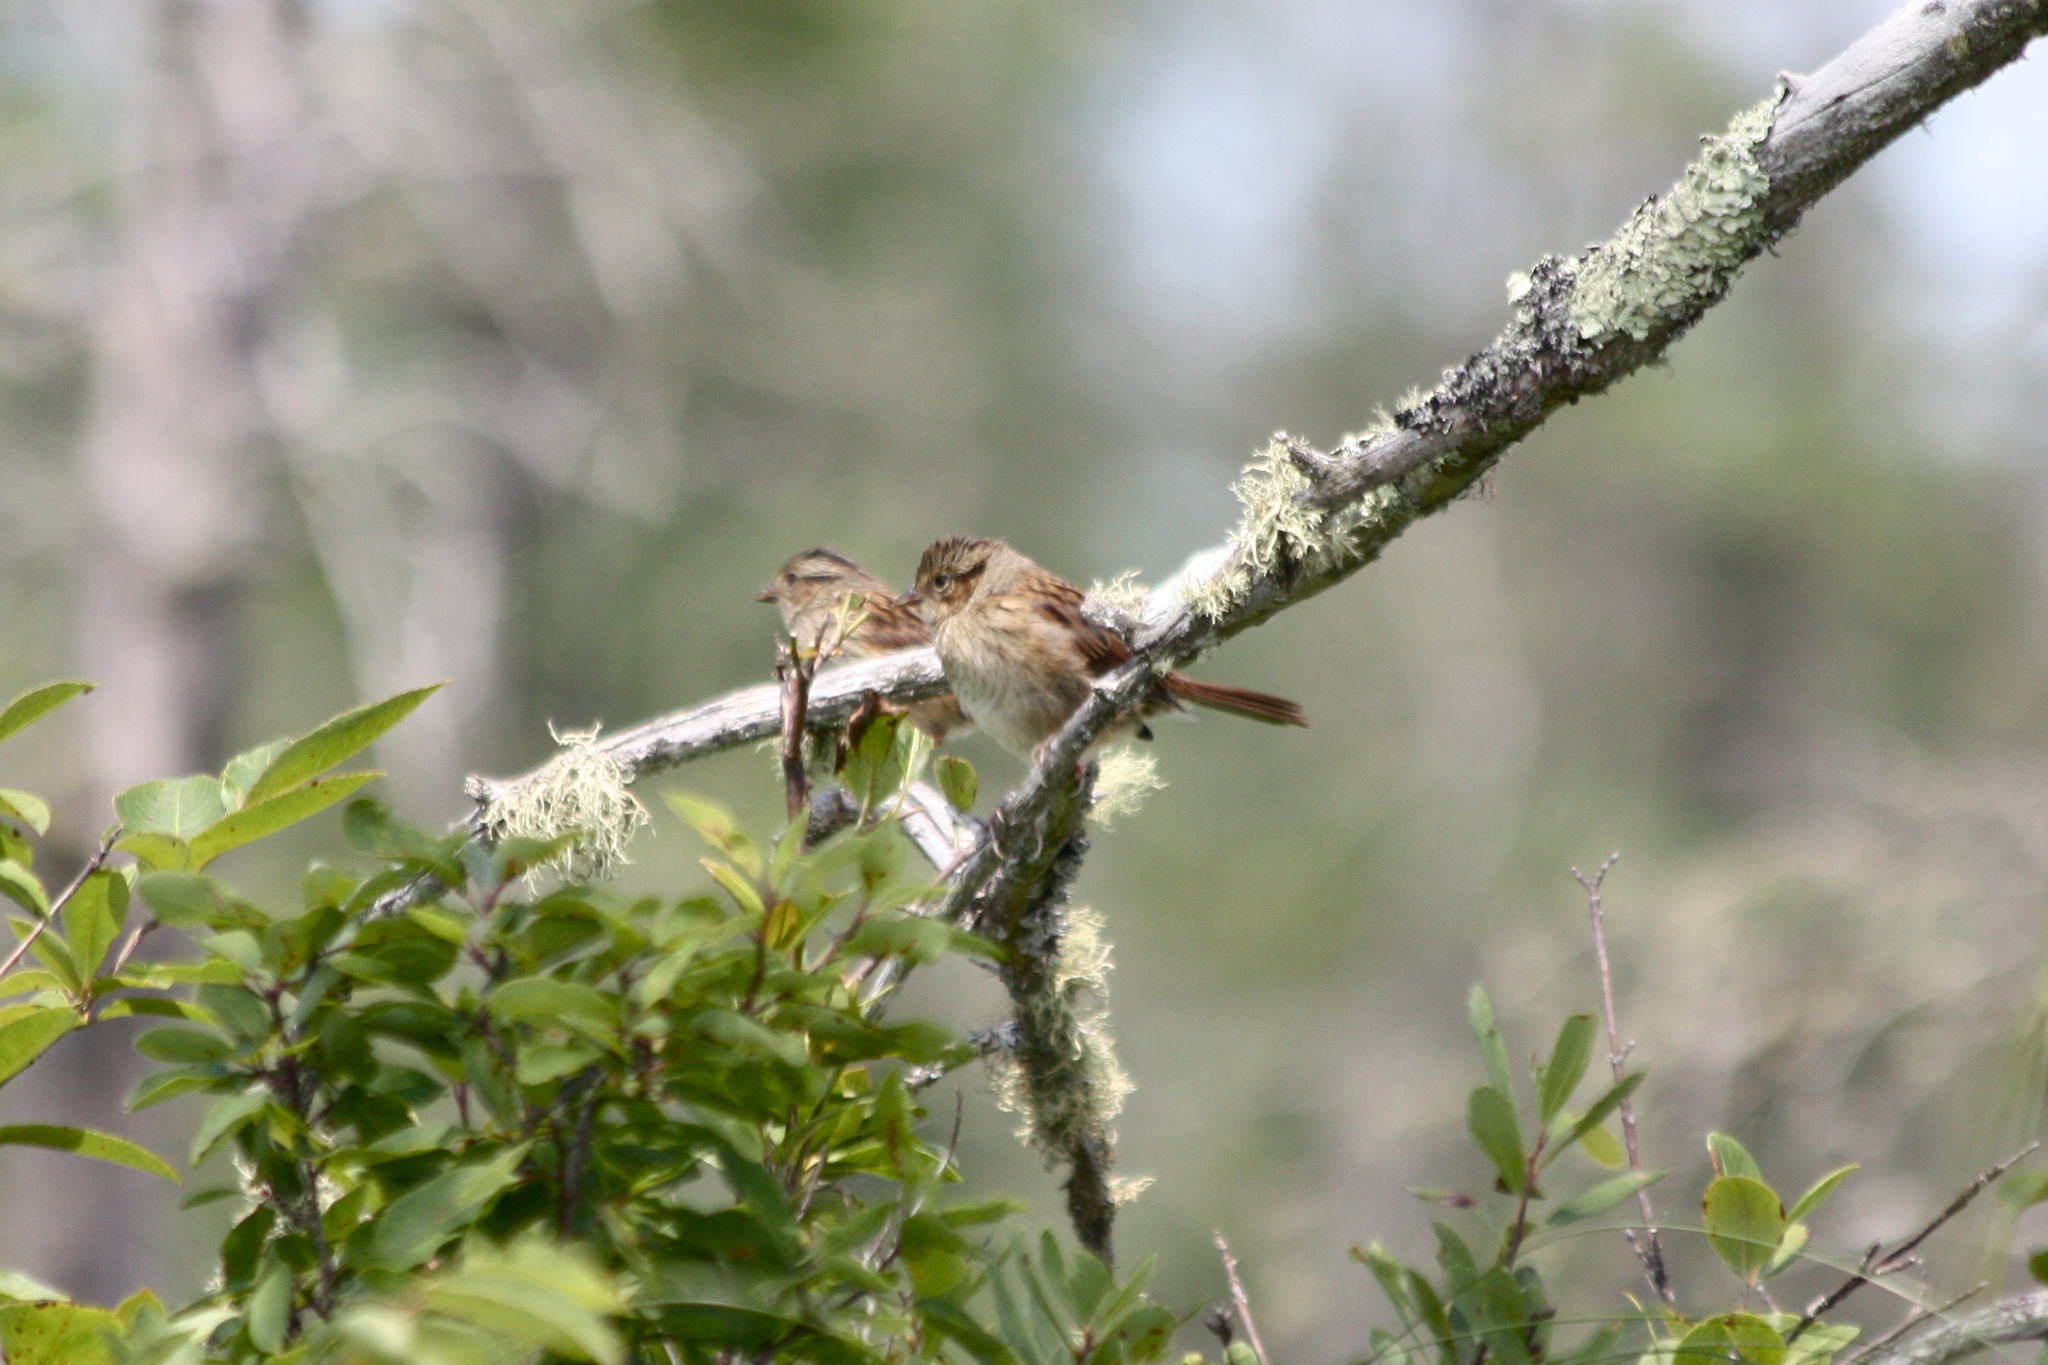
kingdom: Animalia
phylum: Chordata
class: Aves
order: Passeriformes
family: Passerellidae
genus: Melospiza
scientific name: Melospiza georgiana
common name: Swamp sparrow
